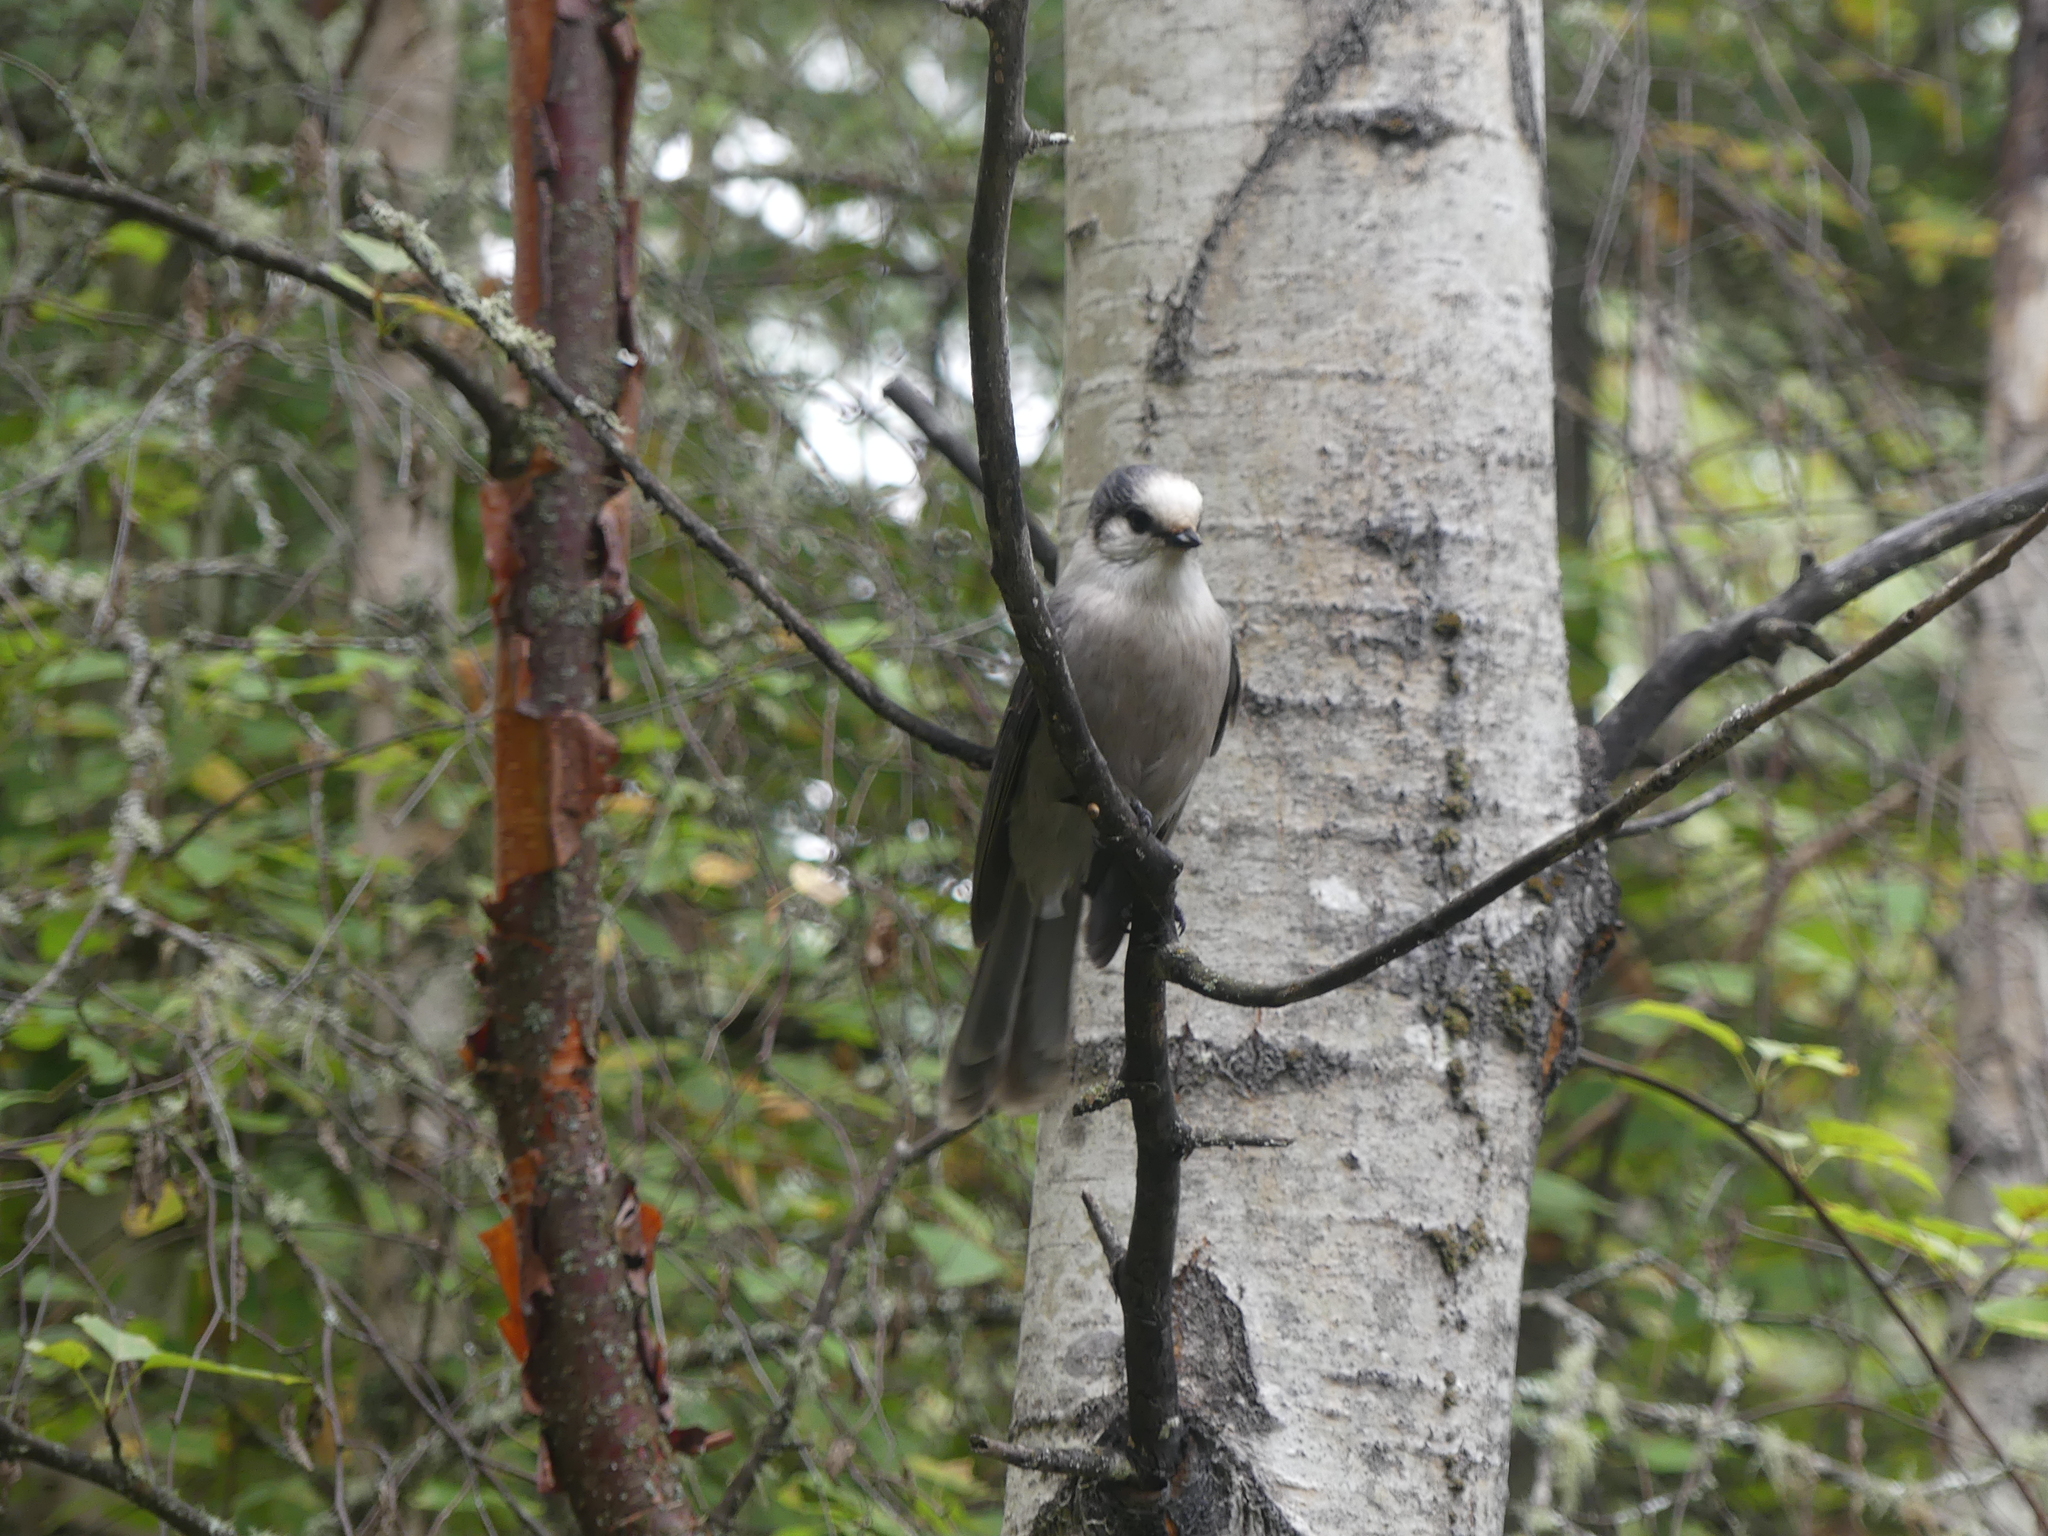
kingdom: Animalia
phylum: Chordata
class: Aves
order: Passeriformes
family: Corvidae
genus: Perisoreus
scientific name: Perisoreus canadensis
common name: Gray jay
